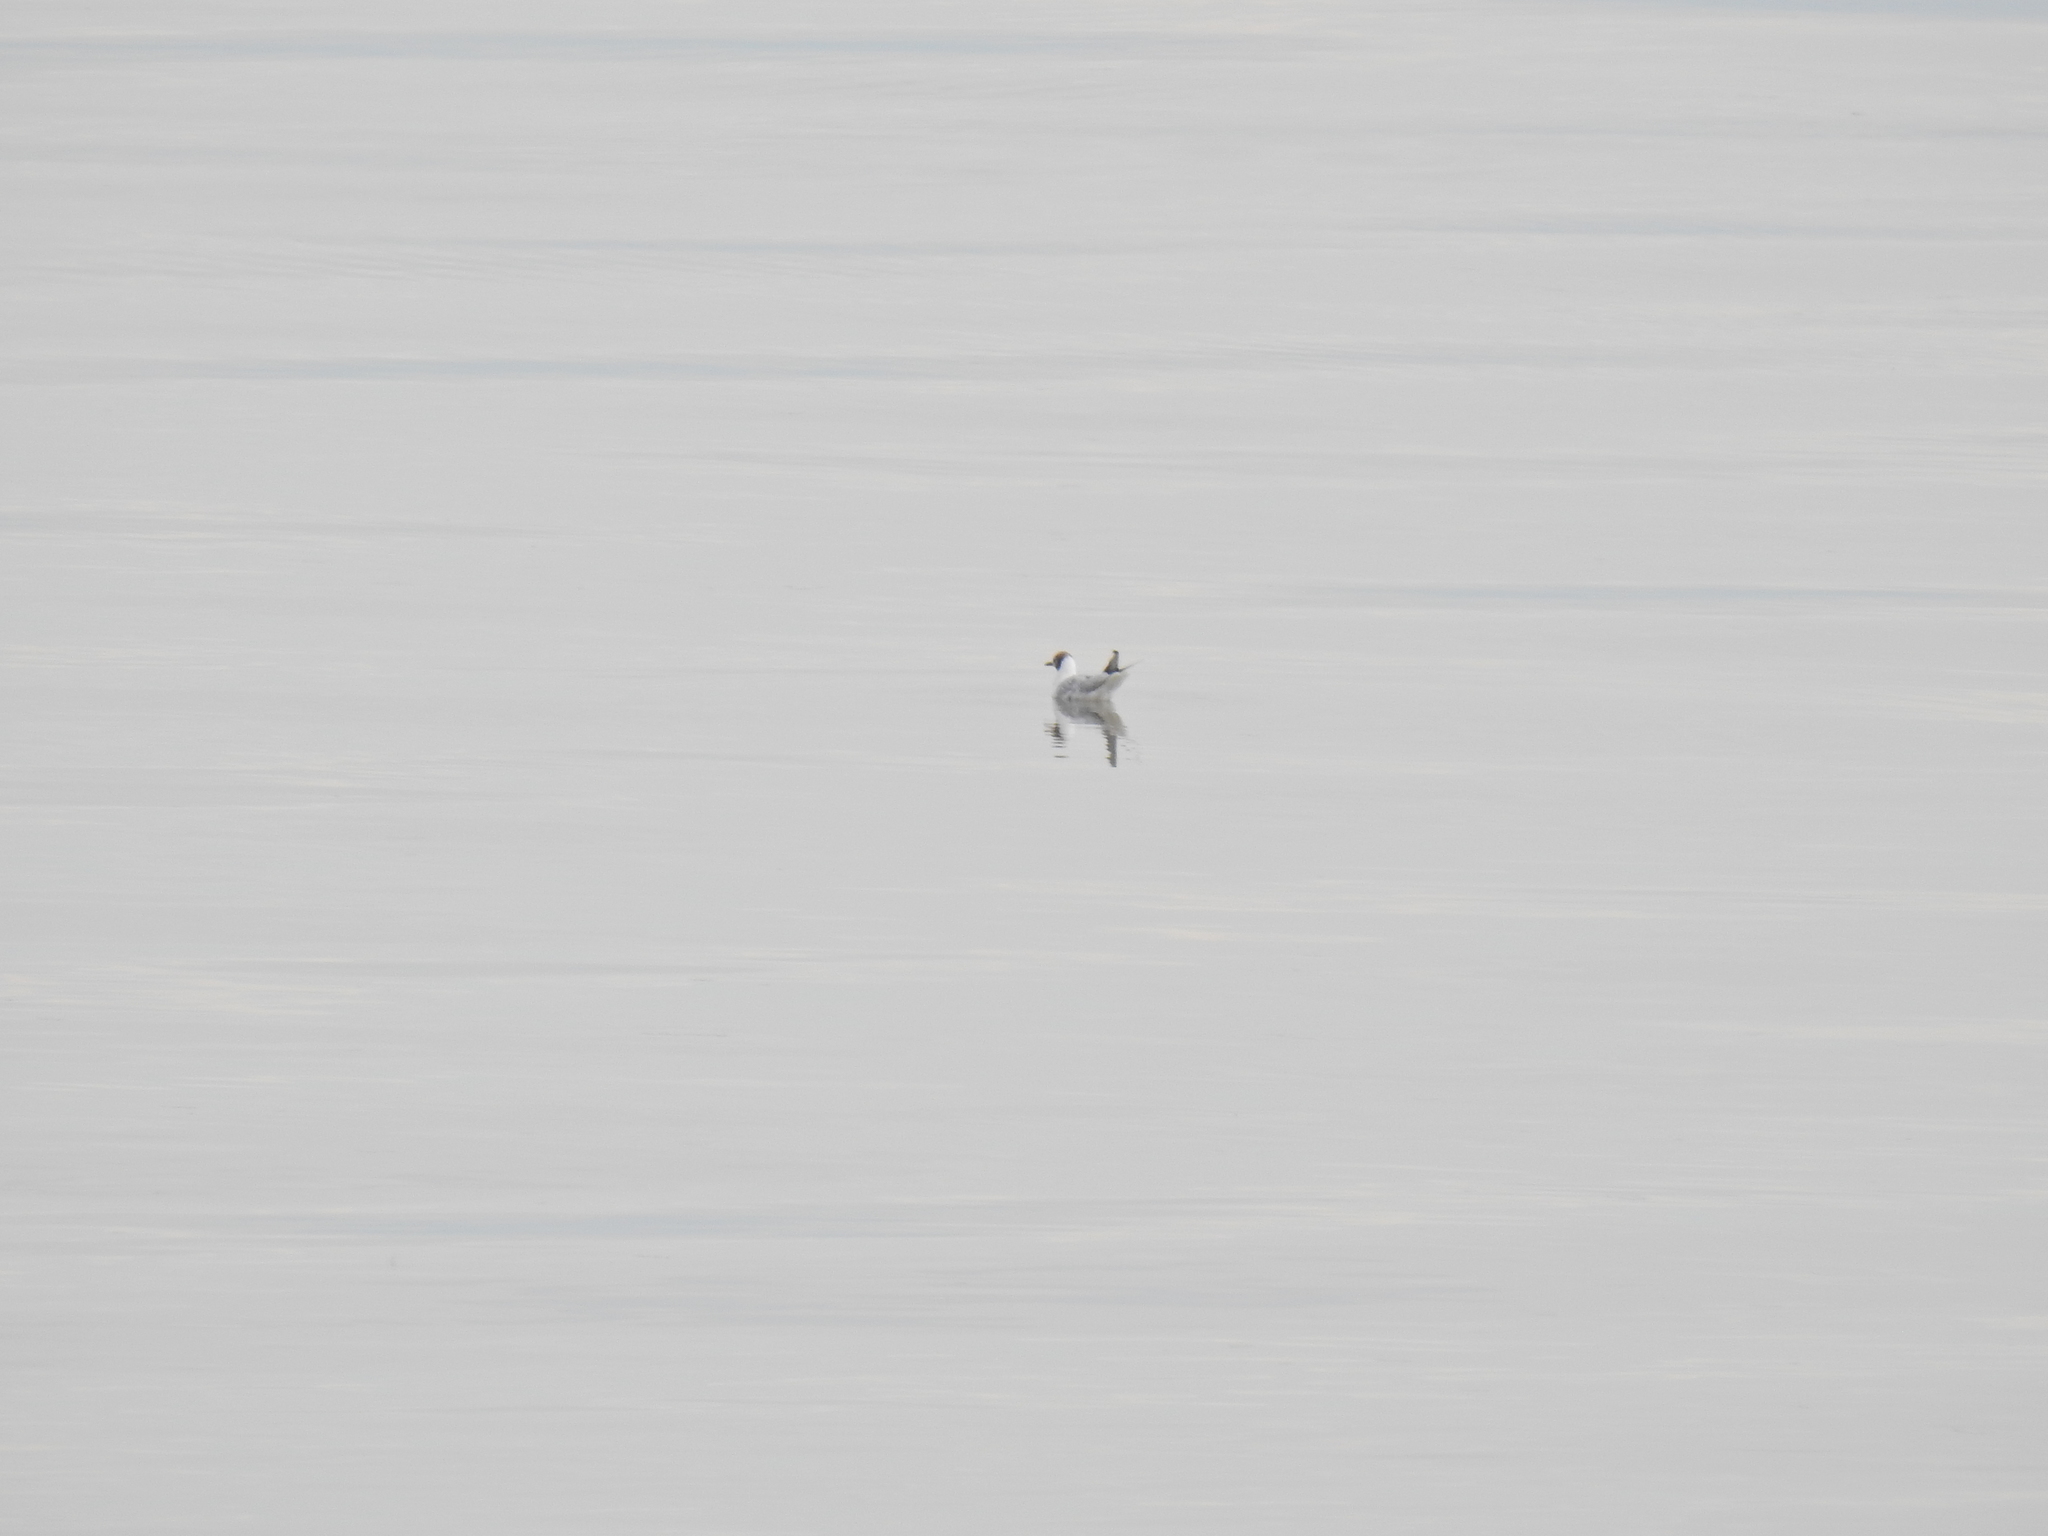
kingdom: Animalia
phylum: Chordata
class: Aves
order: Charadriiformes
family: Laridae
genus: Chroicocephalus
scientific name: Chroicocephalus ridibundus
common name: Black-headed gull
